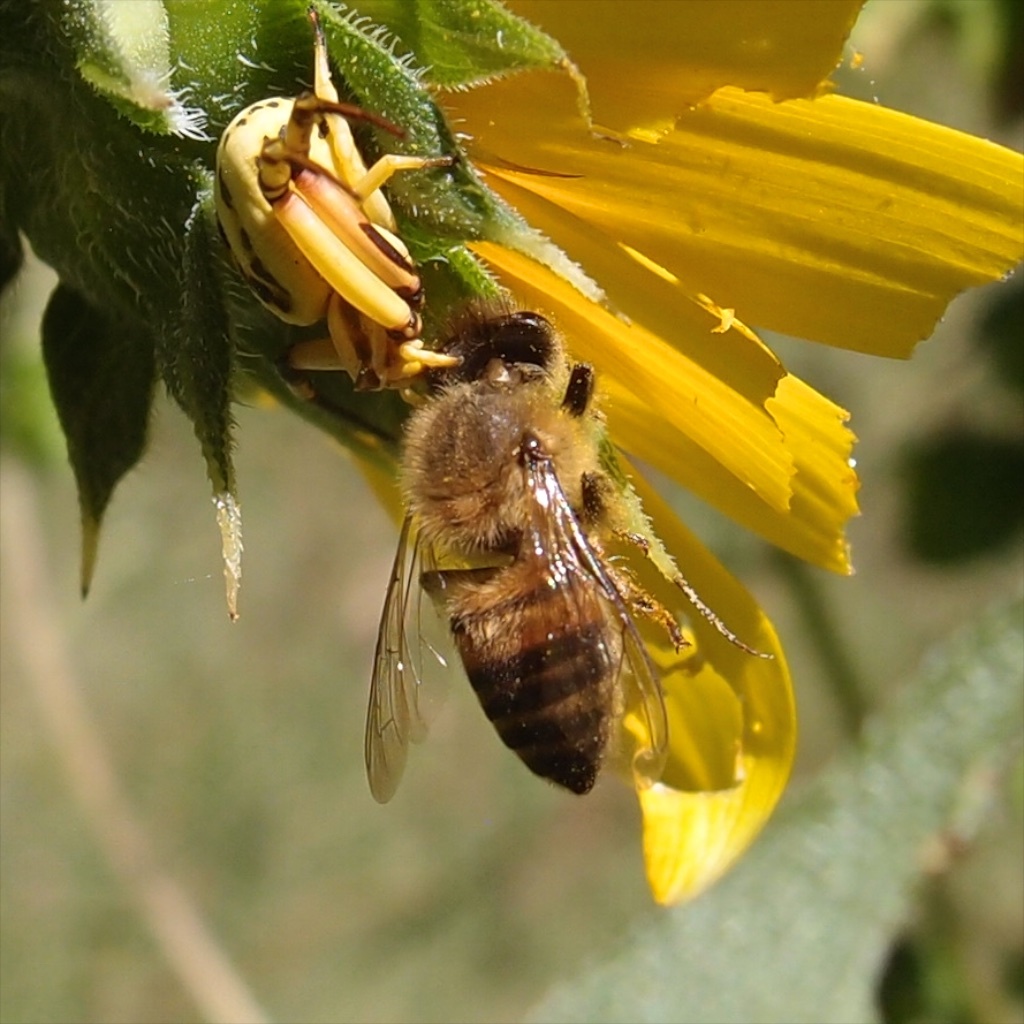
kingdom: Animalia
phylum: Arthropoda
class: Insecta
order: Hymenoptera
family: Apidae
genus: Apis
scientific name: Apis mellifera
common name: Honey bee
